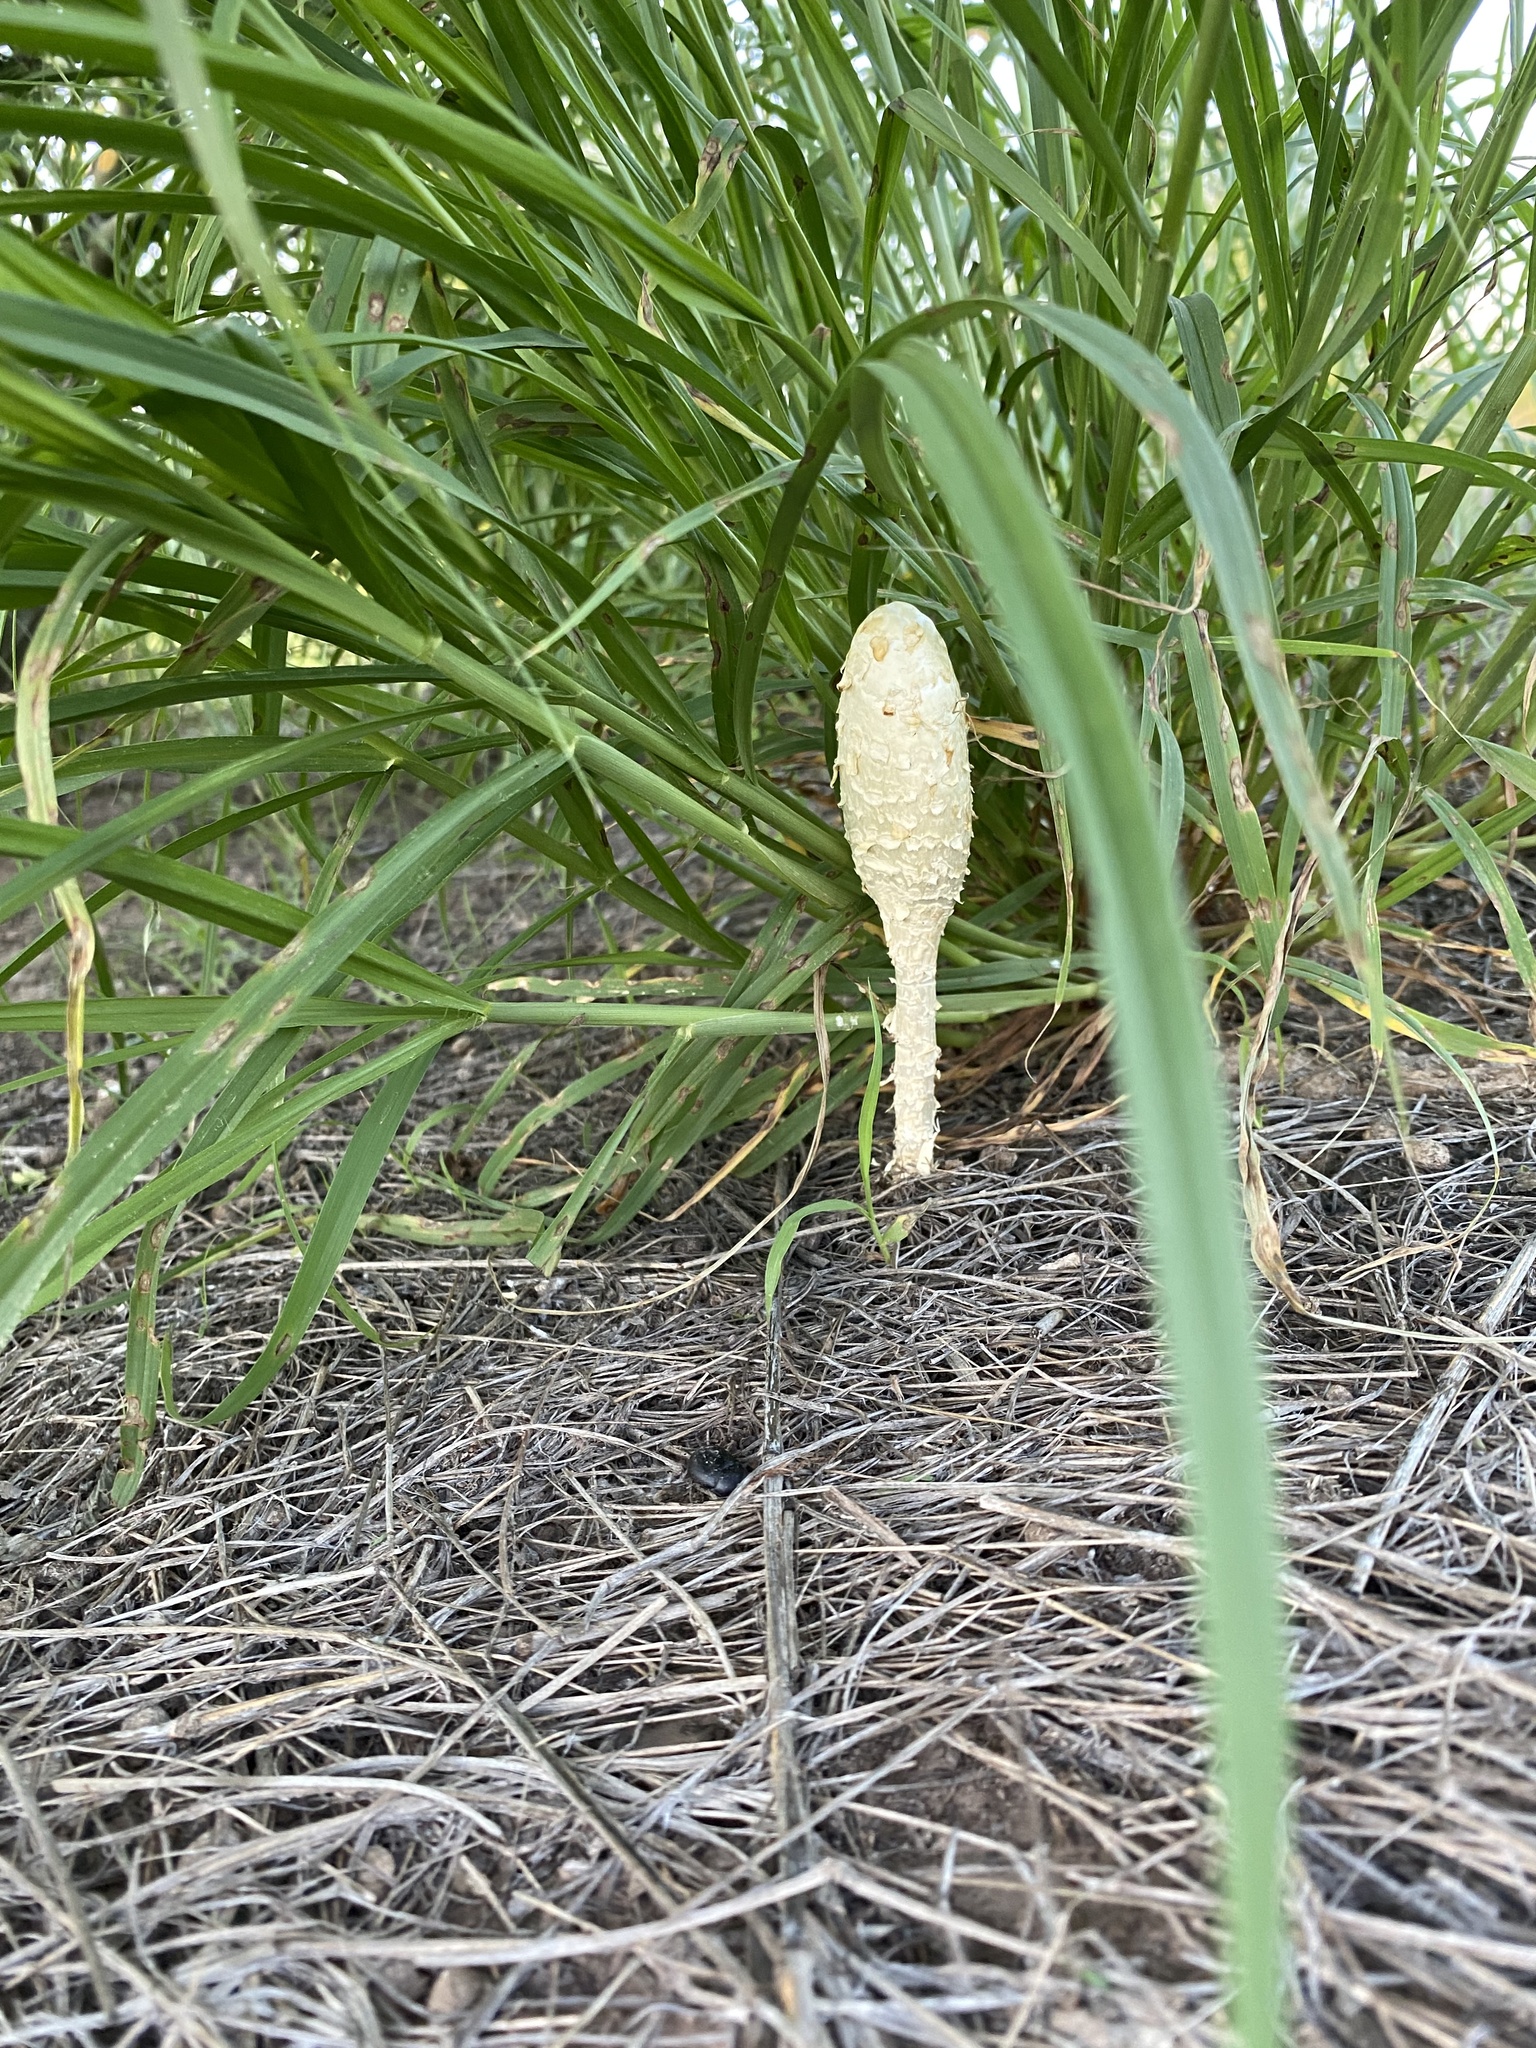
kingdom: Fungi
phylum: Basidiomycota
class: Agaricomycetes
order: Agaricales
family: Agaricaceae
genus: Podaxis
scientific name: Podaxis pistillaris
